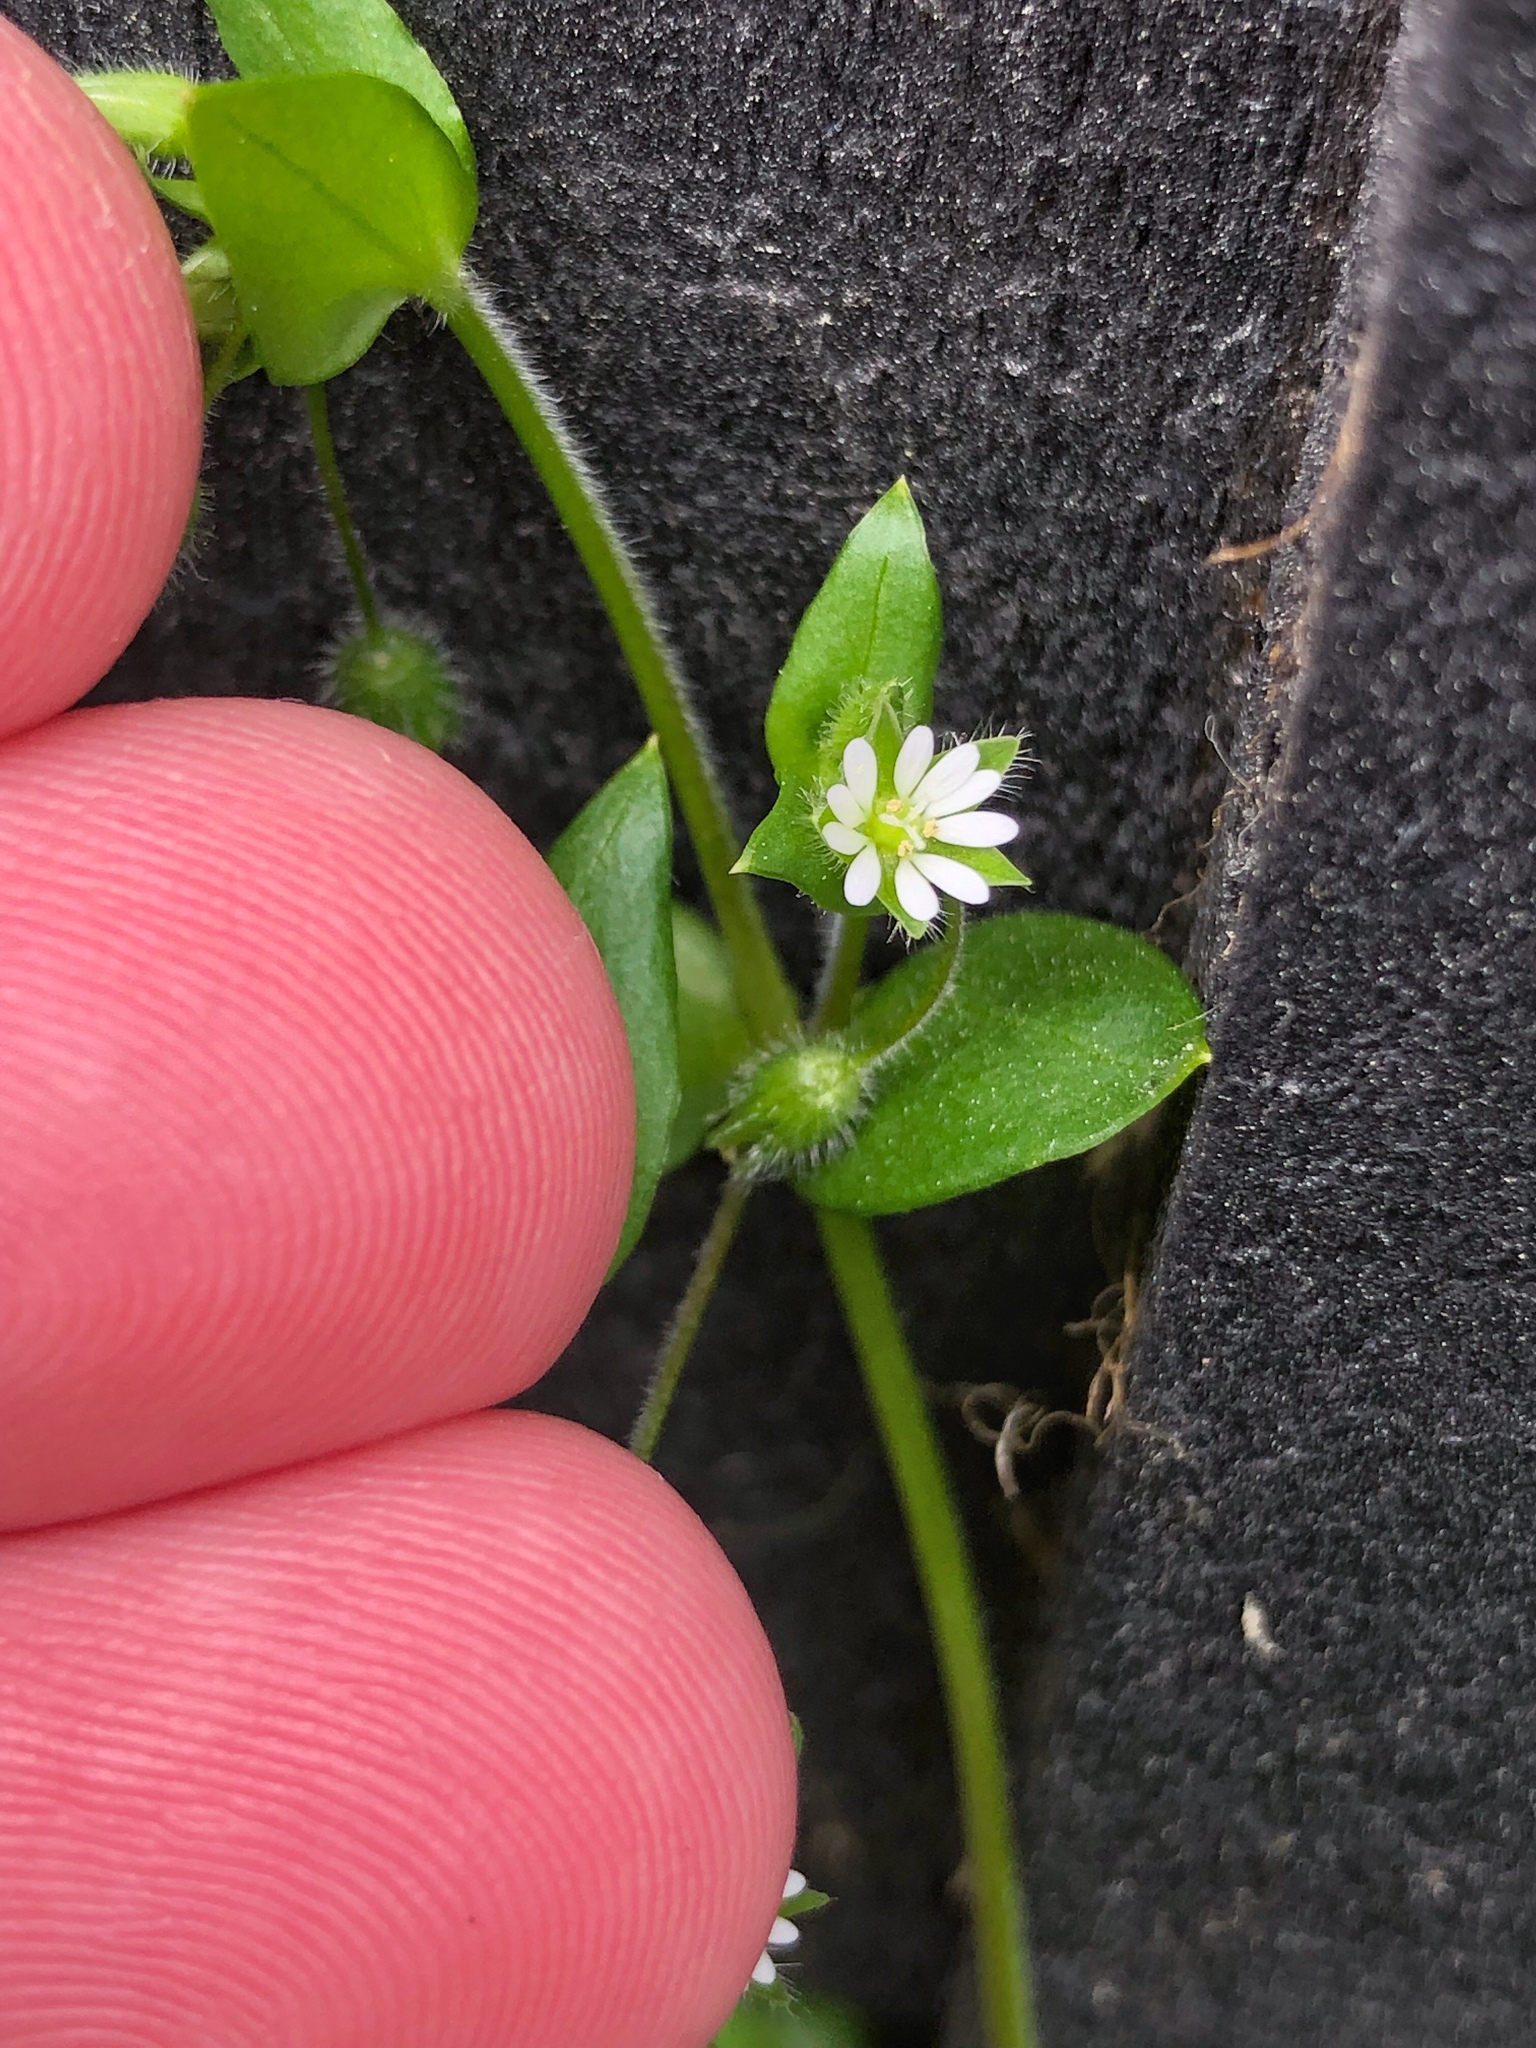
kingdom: Plantae
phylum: Tracheophyta
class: Magnoliopsida
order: Caryophyllales
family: Caryophyllaceae
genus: Stellaria
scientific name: Stellaria media
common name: Common chickweed
